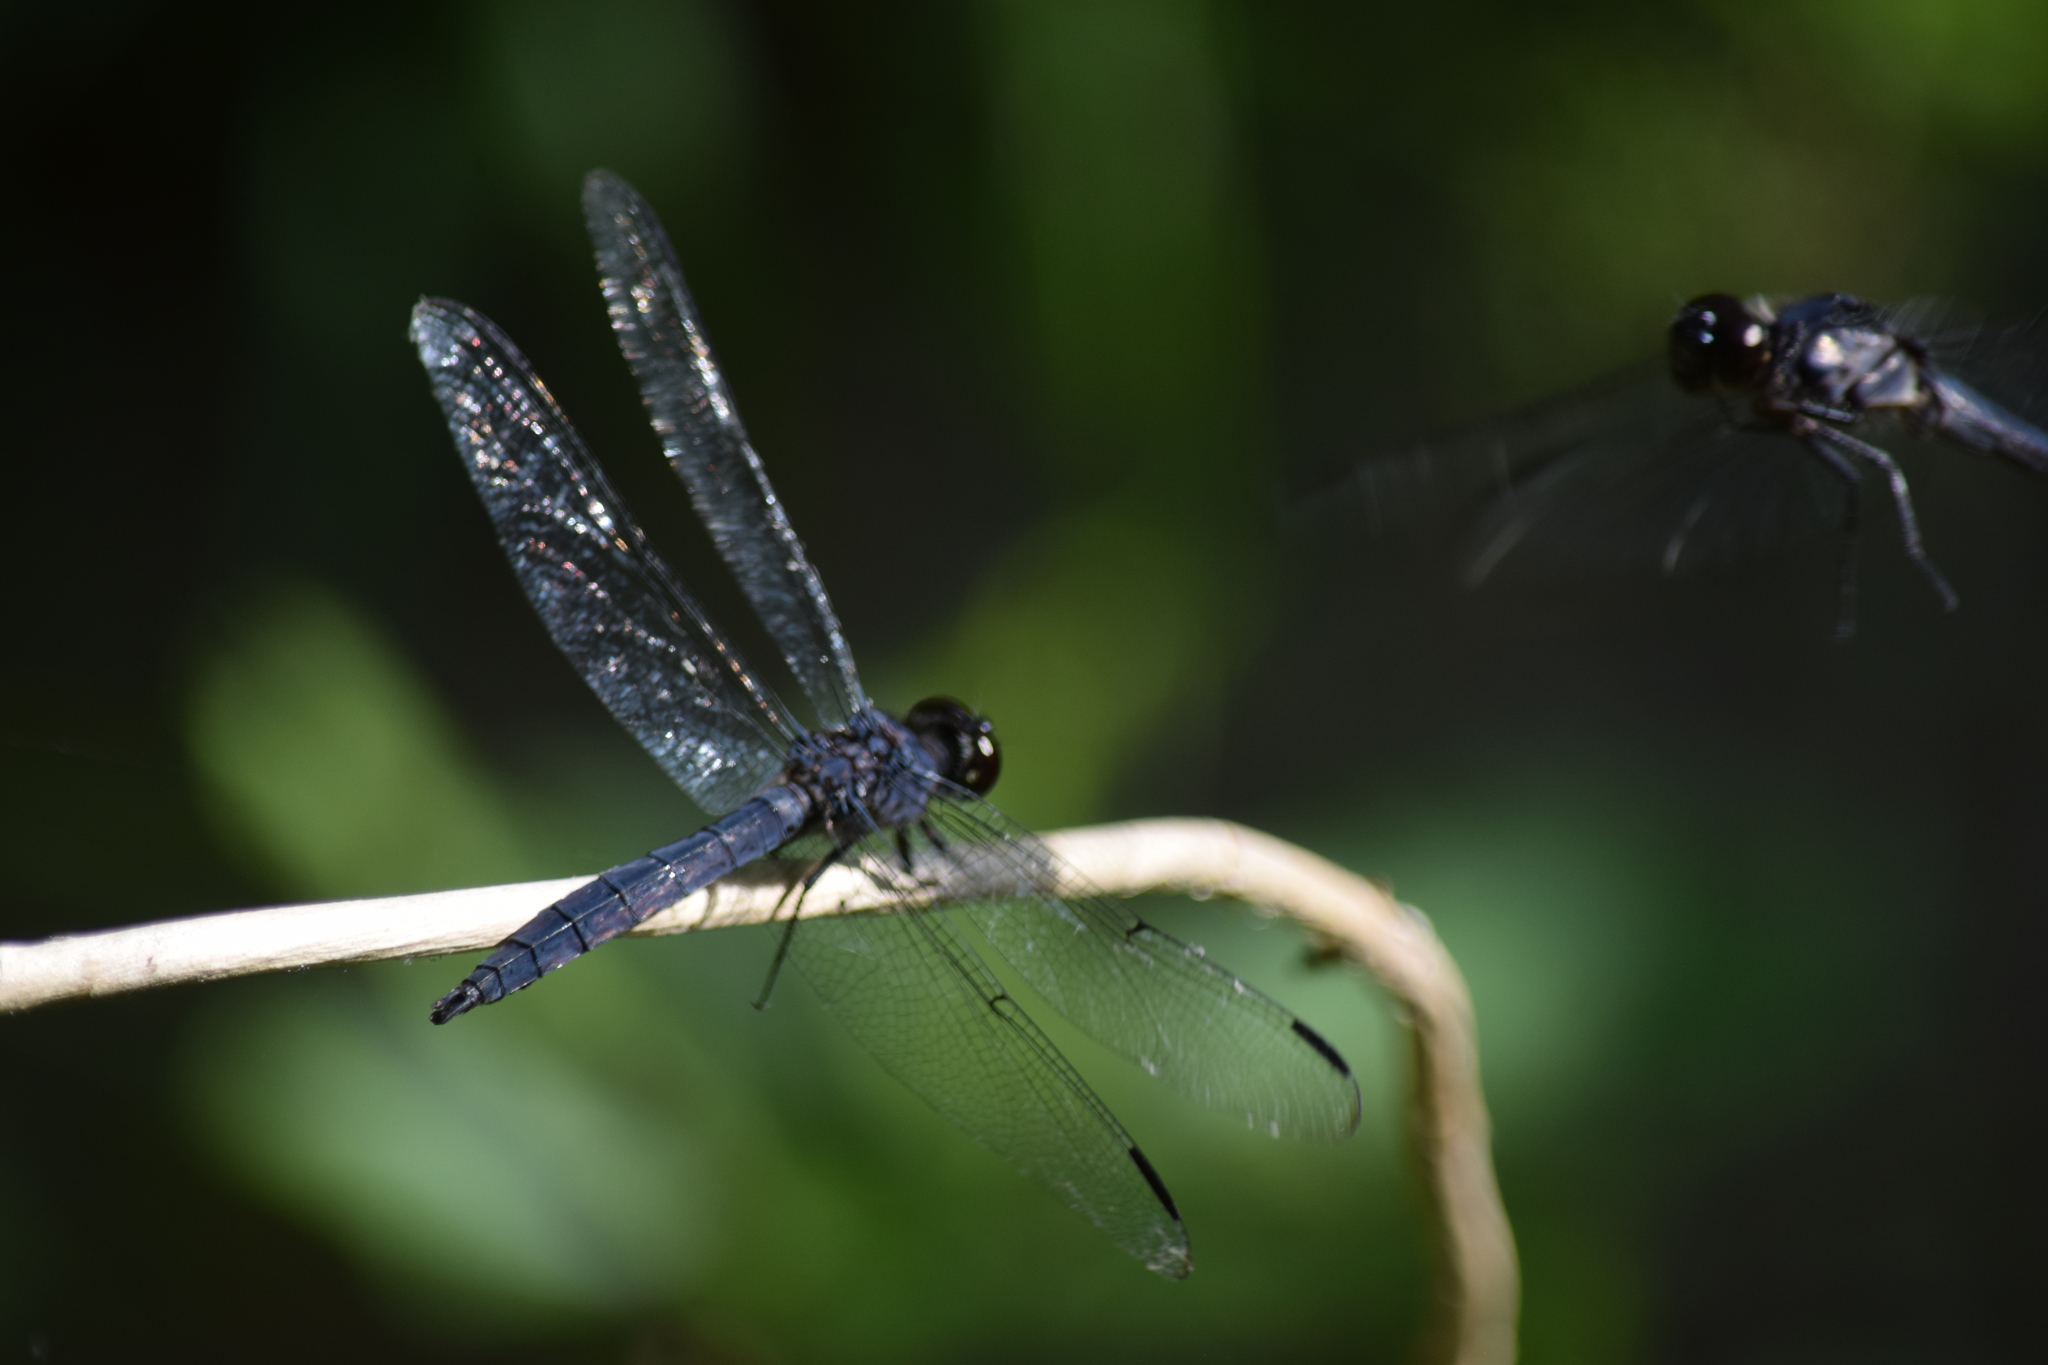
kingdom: Animalia
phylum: Arthropoda
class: Insecta
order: Odonata
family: Libellulidae
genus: Libellula
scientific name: Libellula incesta
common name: Slaty skimmer
